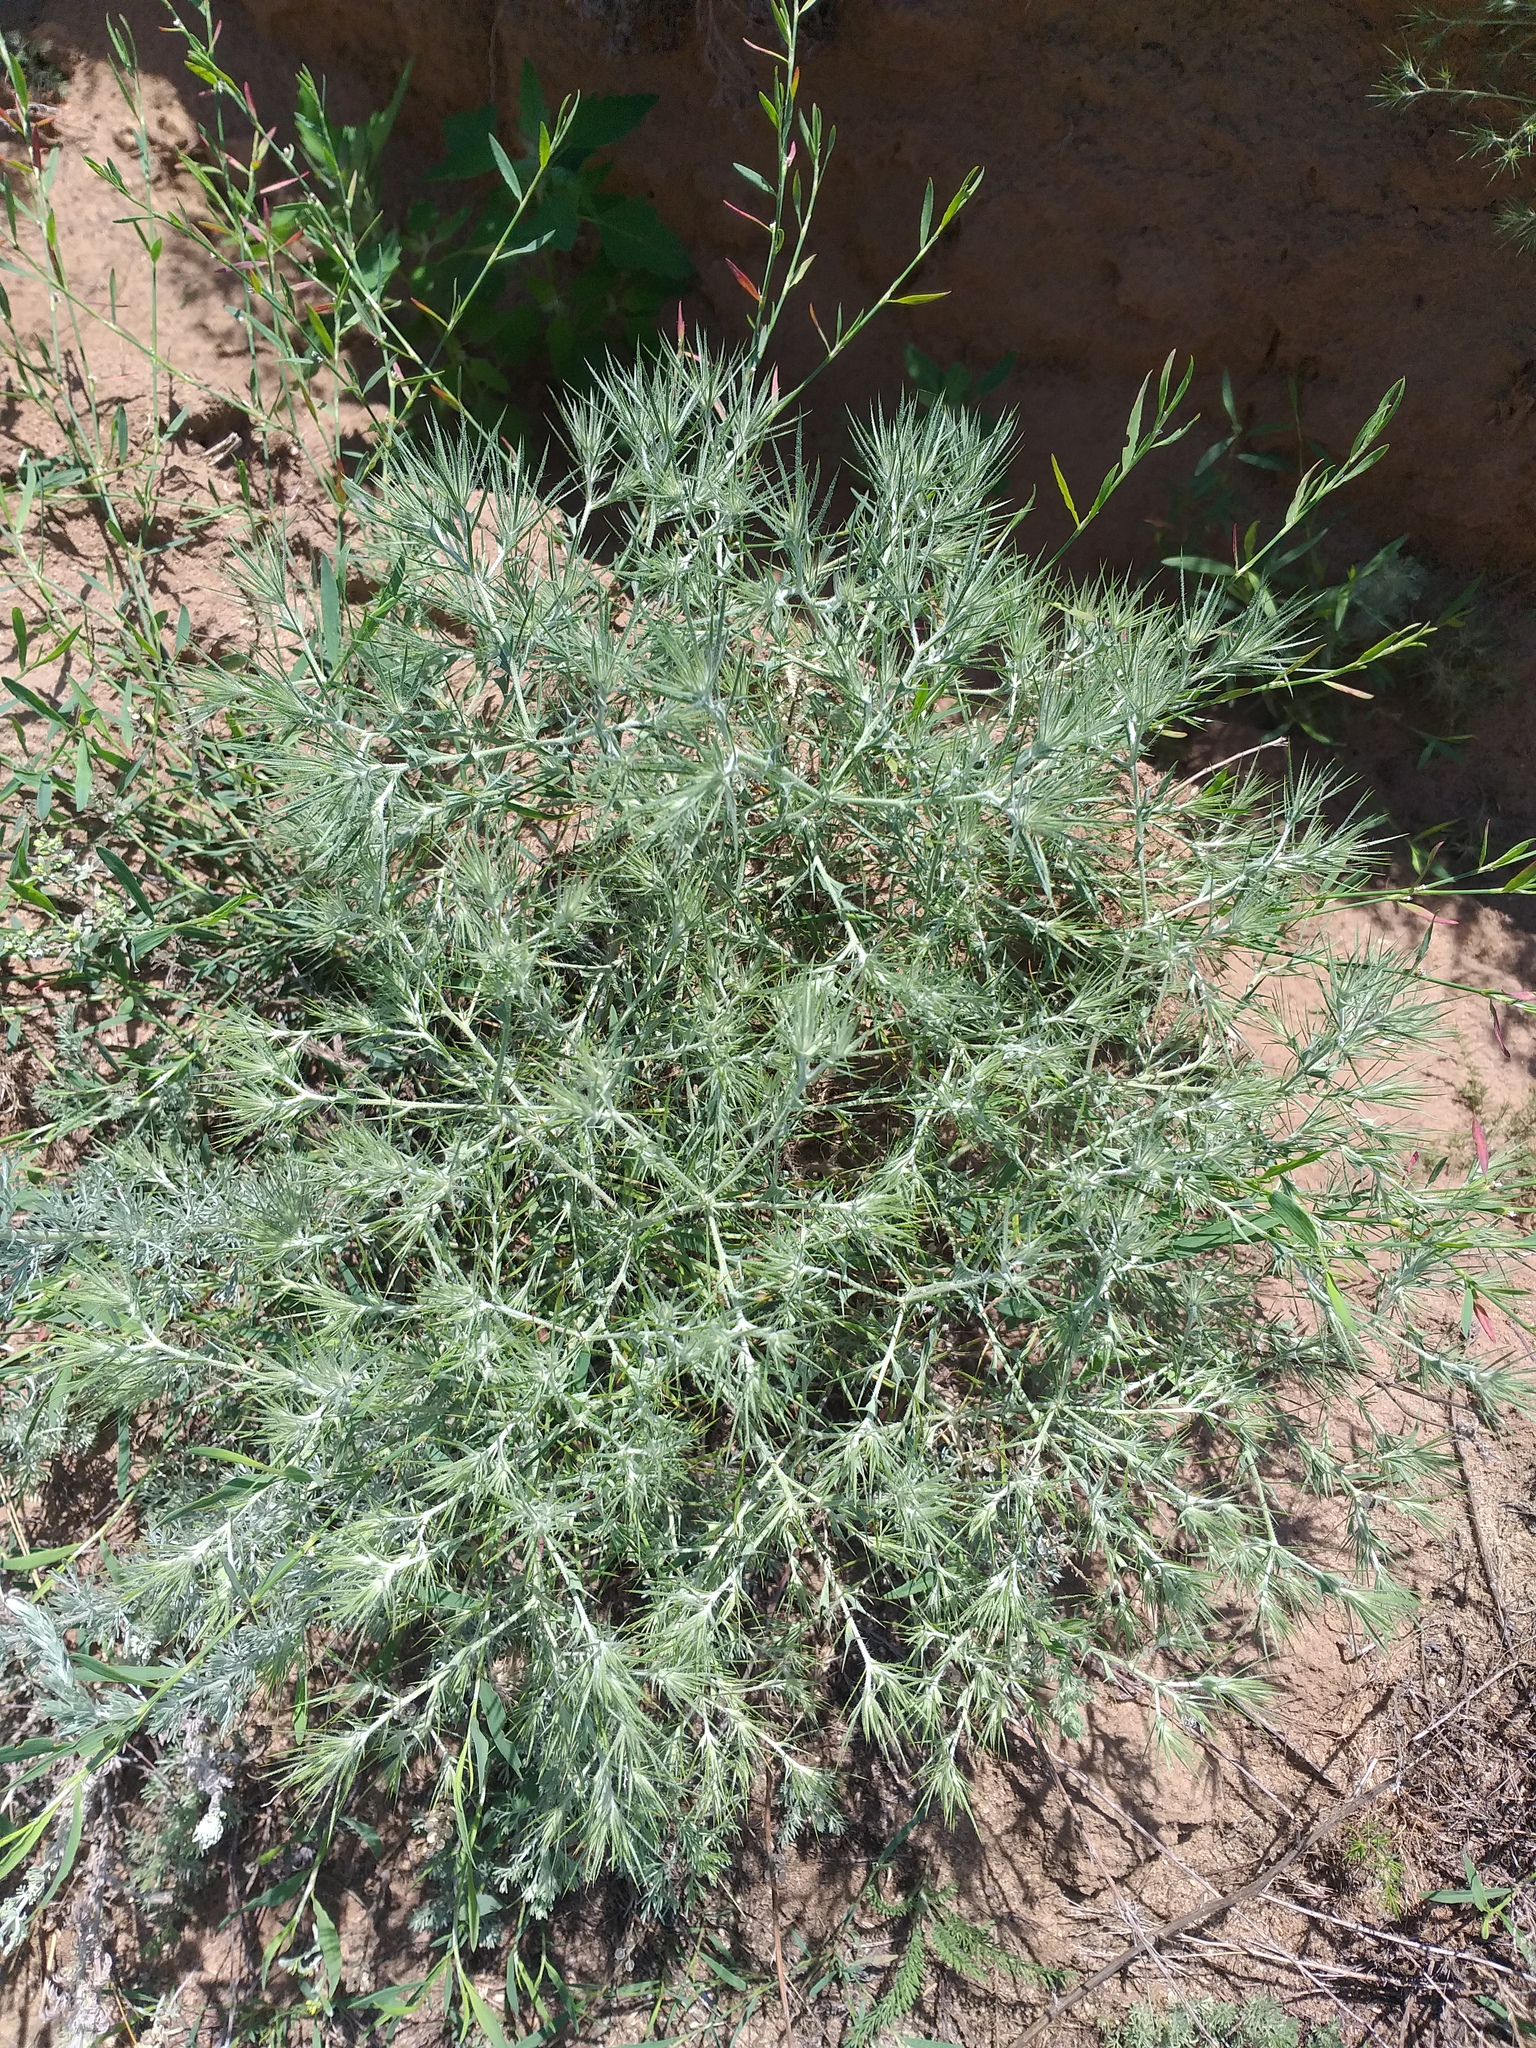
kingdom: Plantae
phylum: Tracheophyta
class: Magnoliopsida
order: Caryophyllales
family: Amaranthaceae
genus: Ceratocarpus
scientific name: Ceratocarpus arenarius
